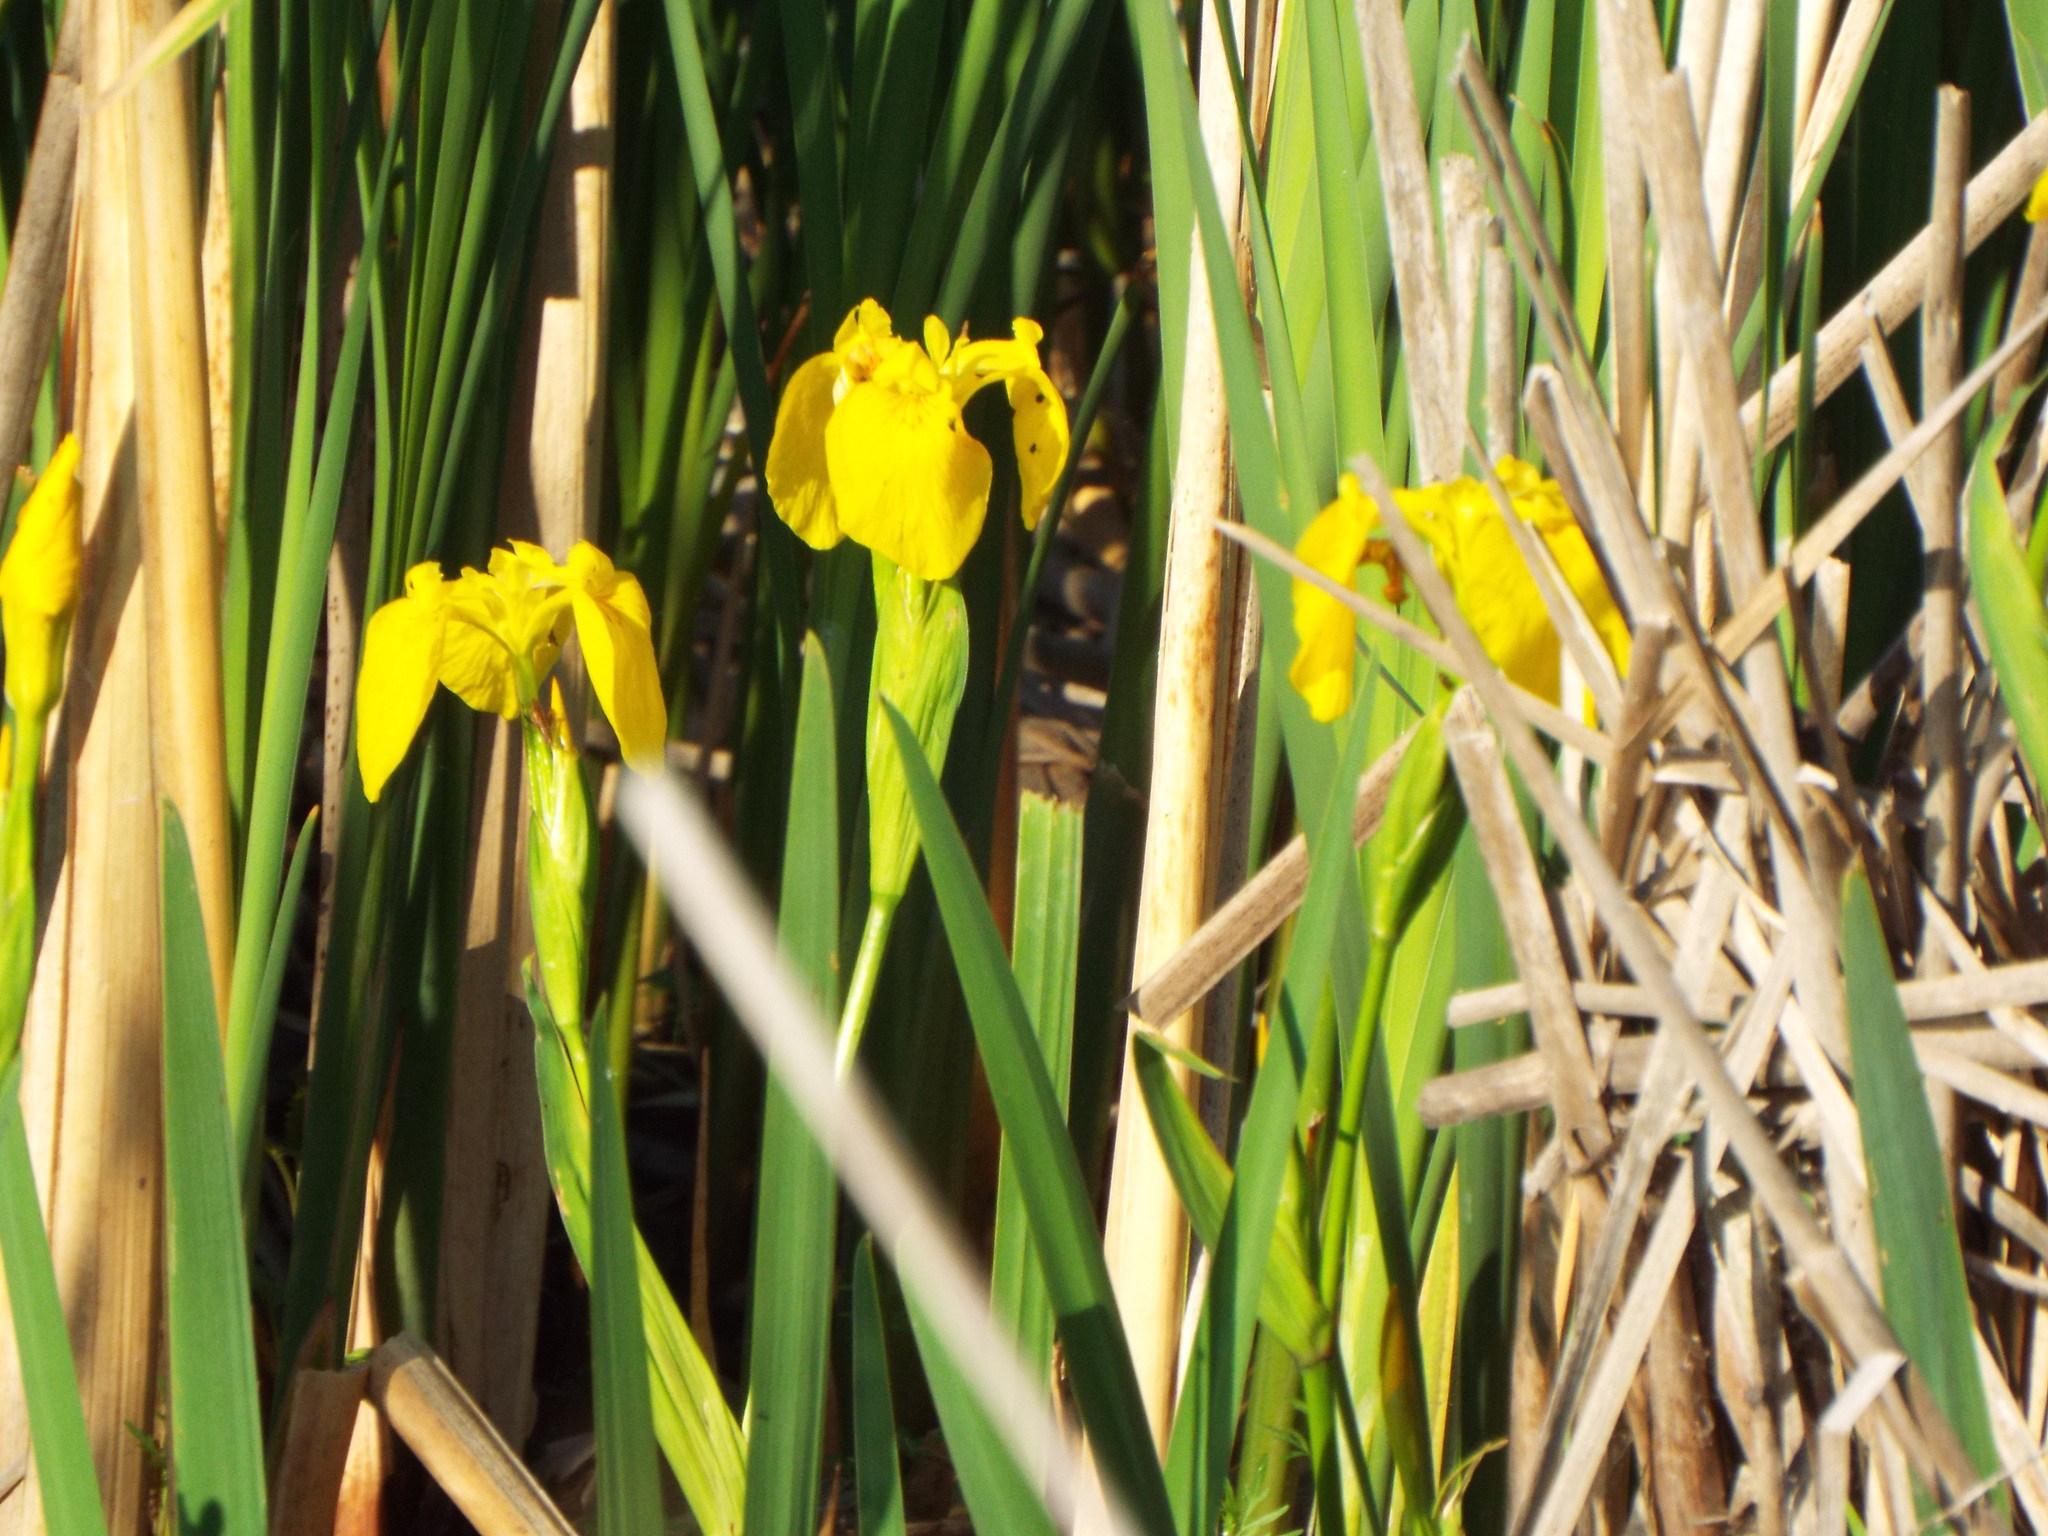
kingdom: Plantae
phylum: Tracheophyta
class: Liliopsida
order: Asparagales
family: Iridaceae
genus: Iris
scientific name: Iris pseudacorus
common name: Yellow flag
